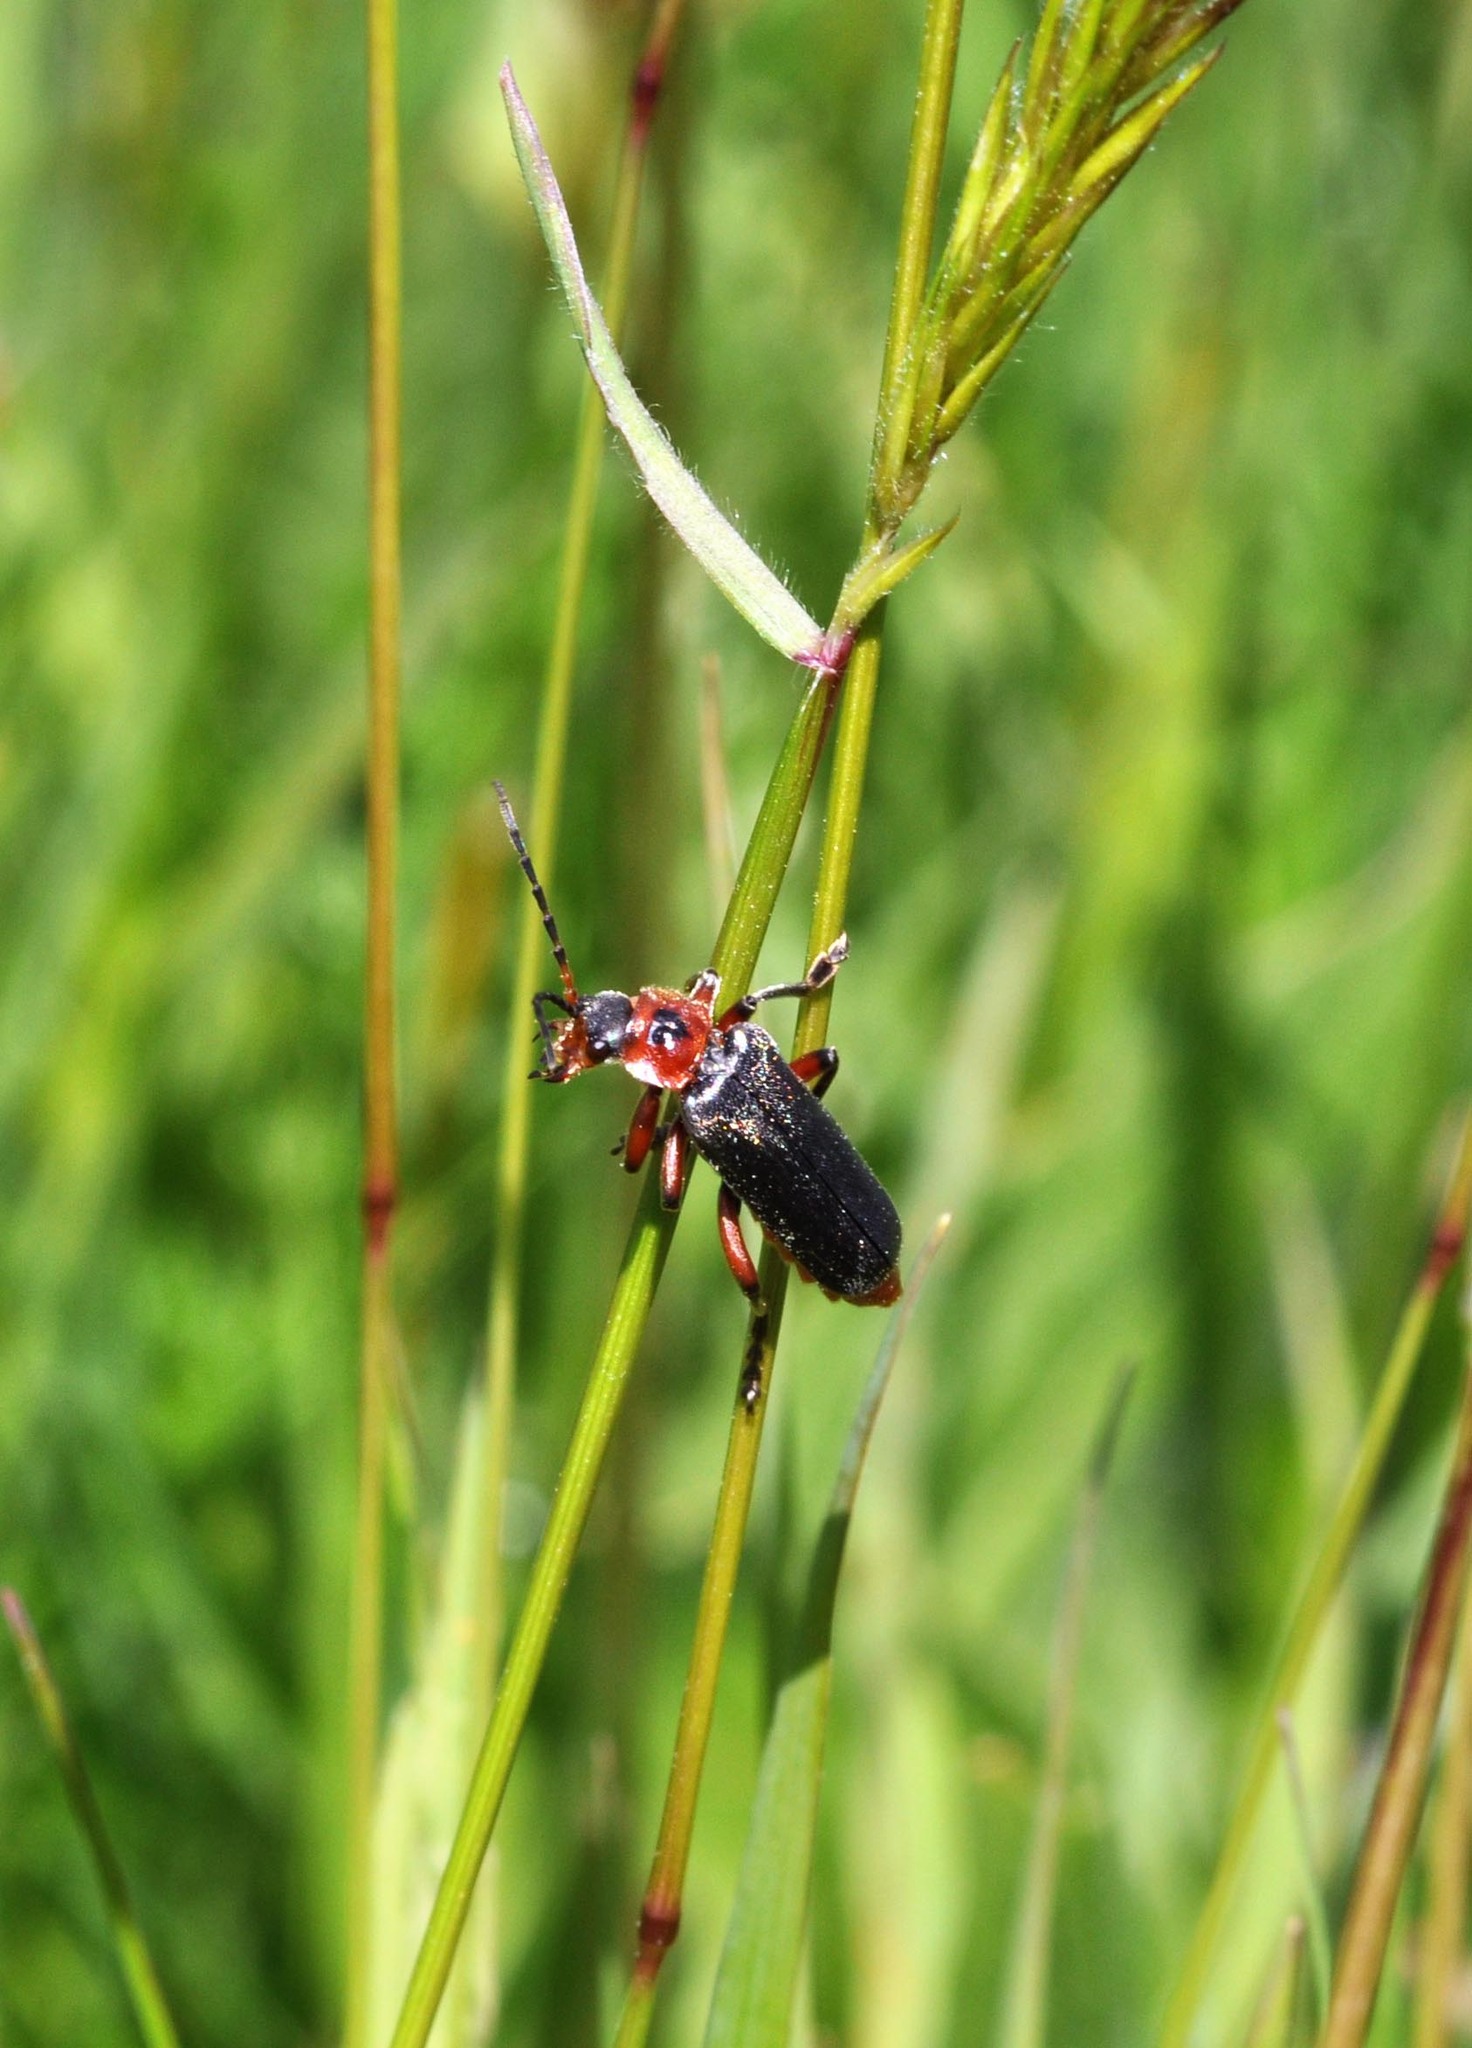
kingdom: Animalia
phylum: Arthropoda
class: Insecta
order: Coleoptera
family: Cantharidae
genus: Cantharis
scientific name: Cantharis rustica
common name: Soldier beetle
